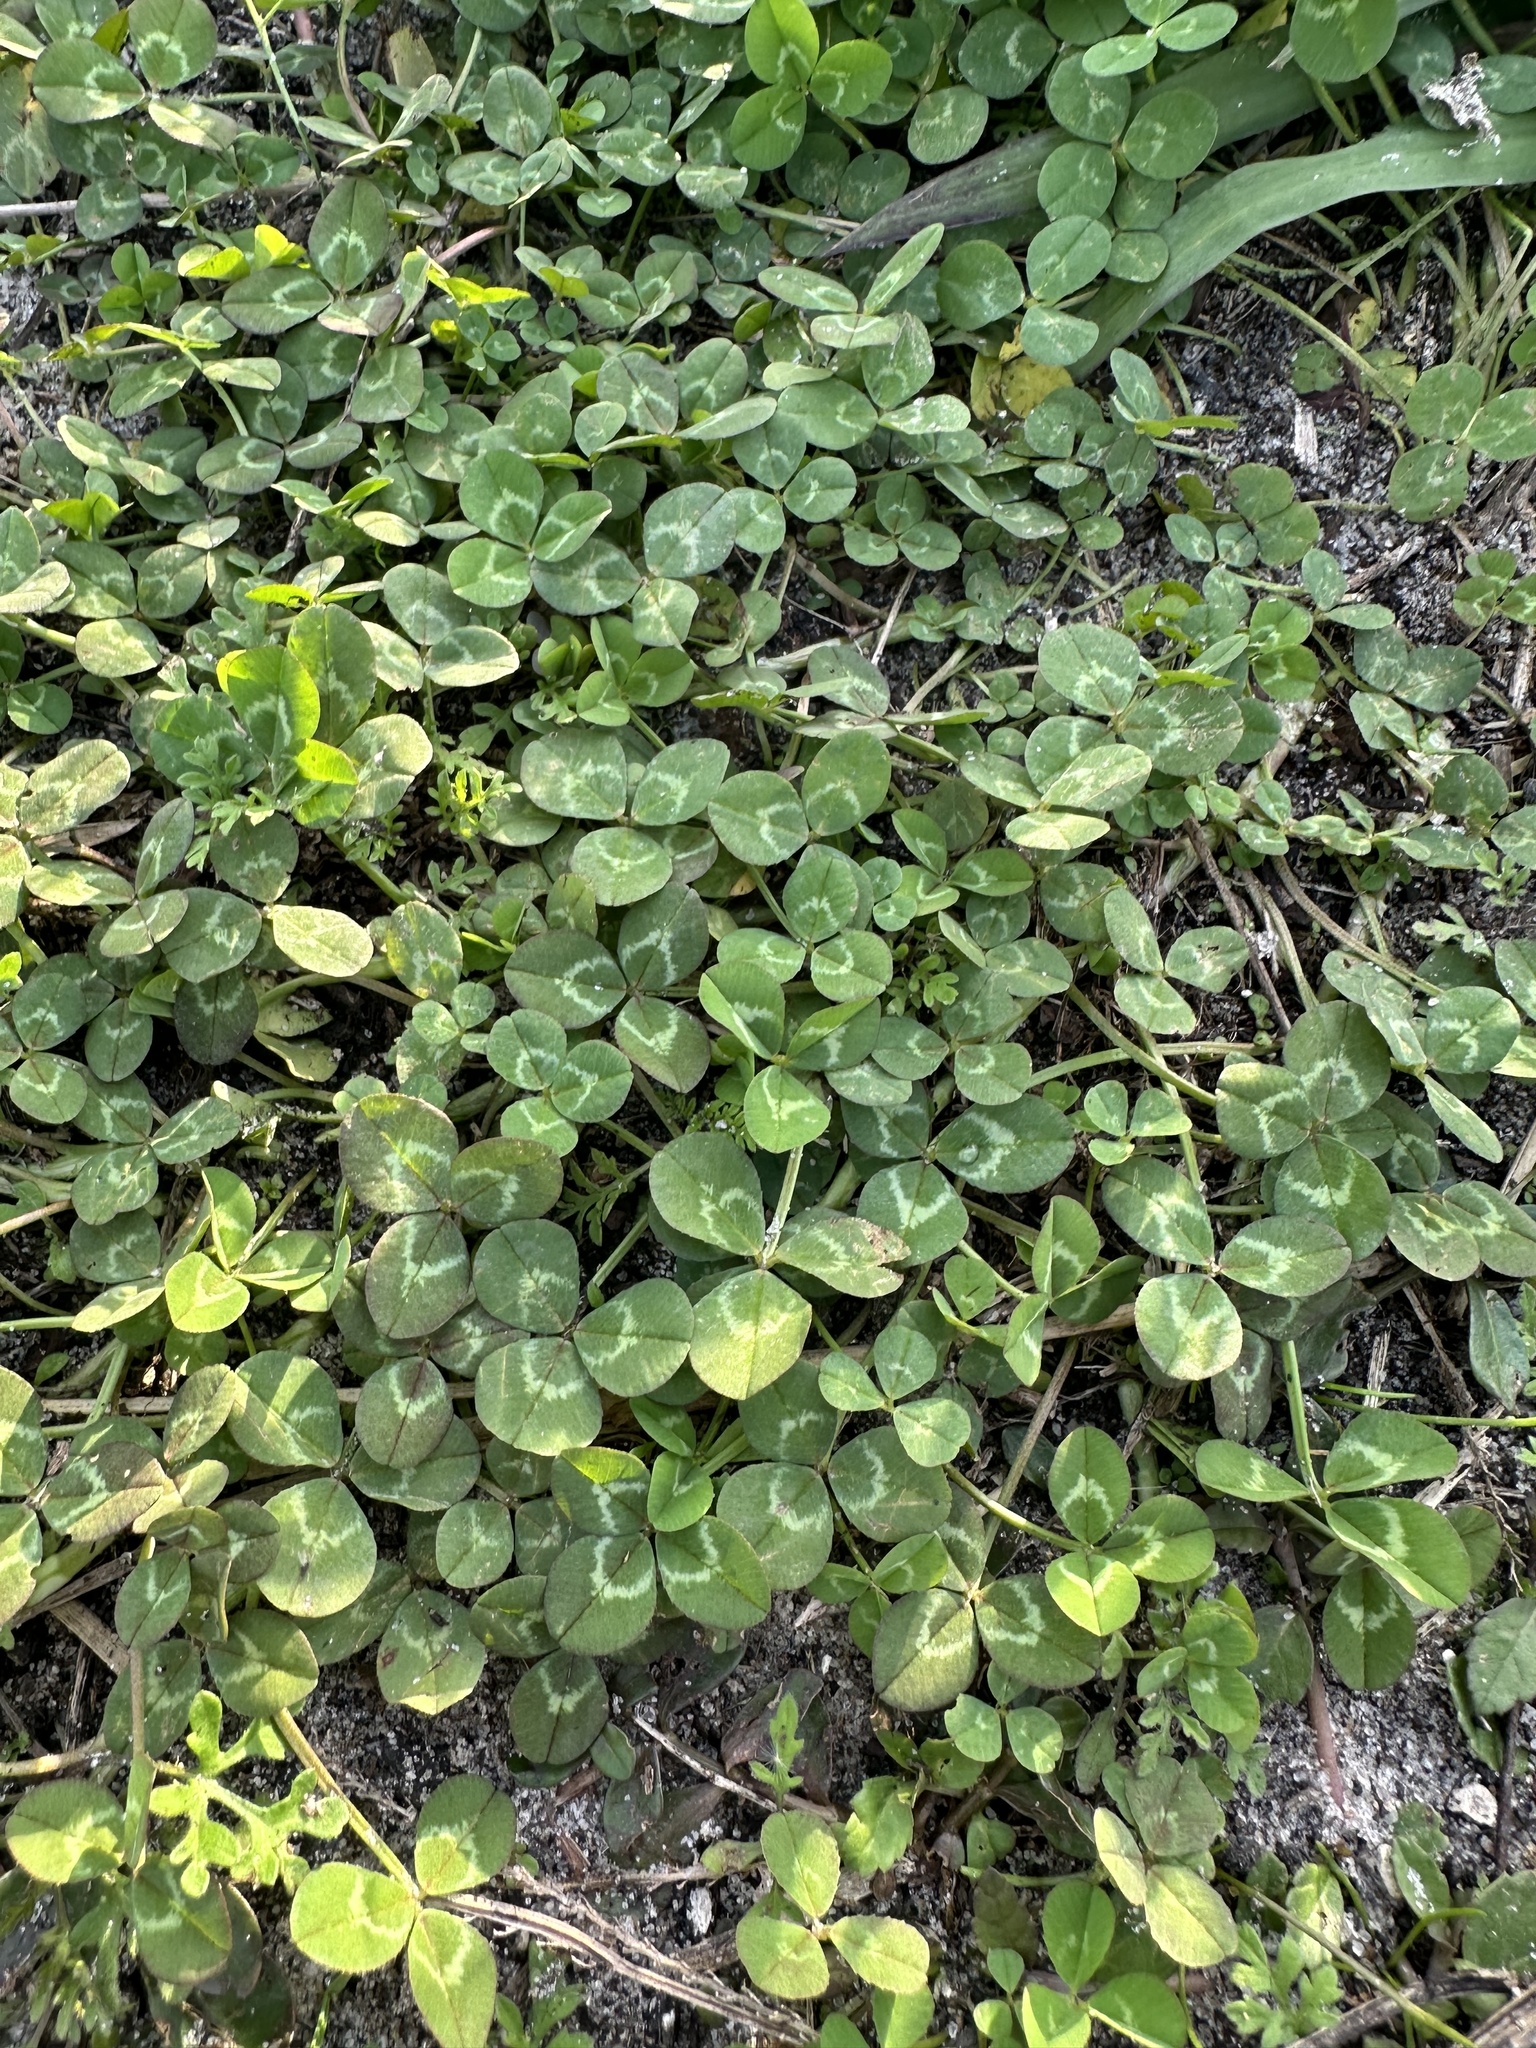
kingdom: Plantae
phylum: Tracheophyta
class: Magnoliopsida
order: Fabales
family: Fabaceae
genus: Trifolium
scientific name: Trifolium repens
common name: White clover
